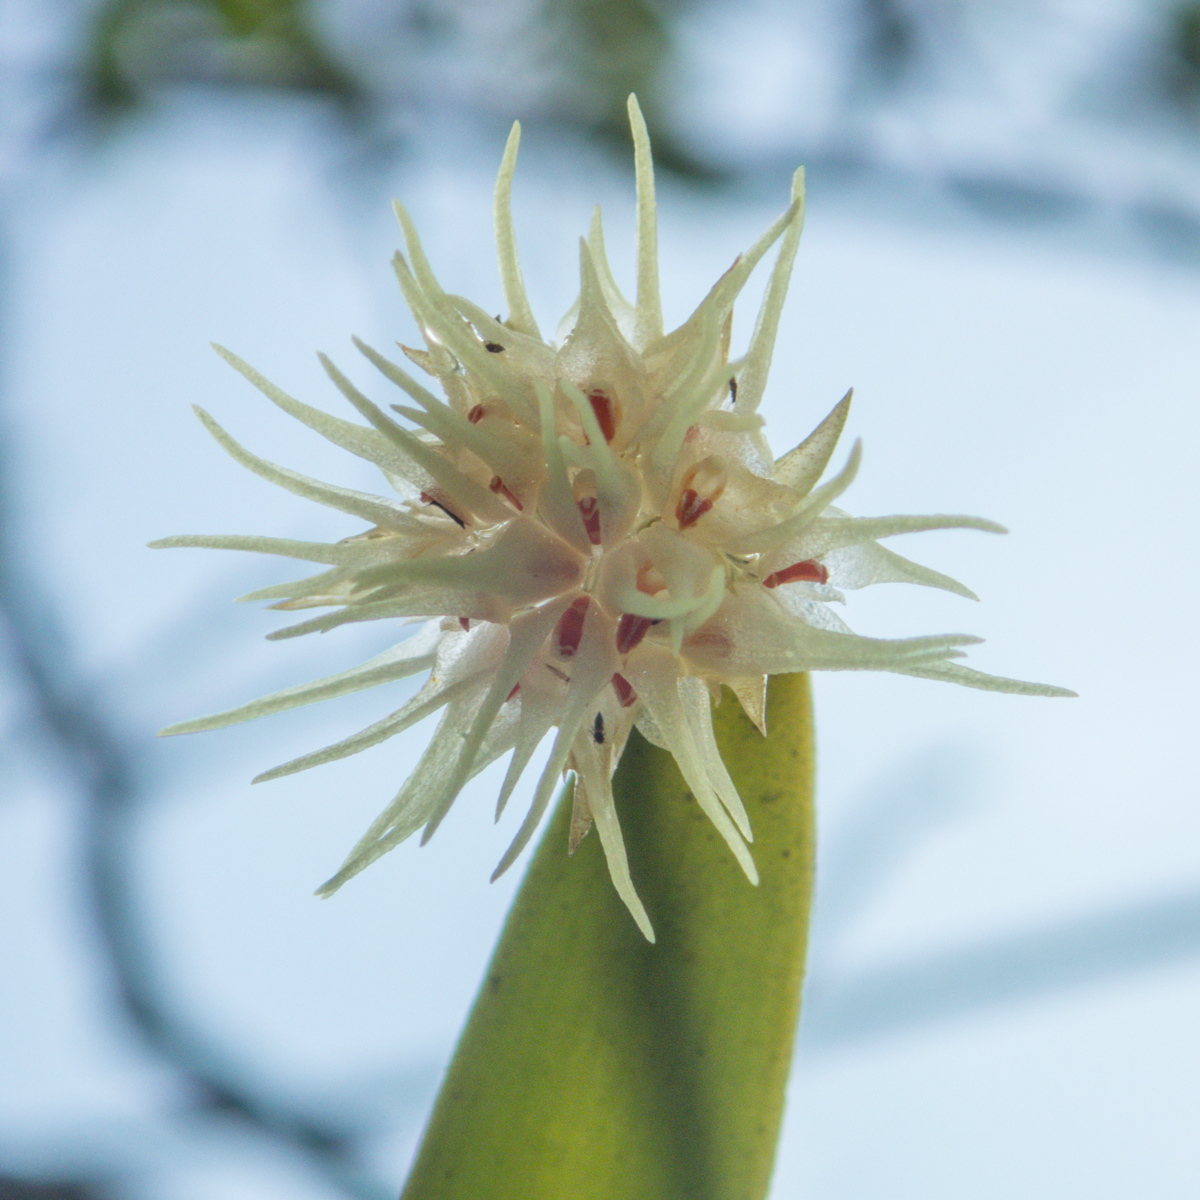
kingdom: Plantae
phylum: Tracheophyta
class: Liliopsida
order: Asparagales
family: Orchidaceae
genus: Bulbophyllum
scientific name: Bulbophyllum odoratissimum
